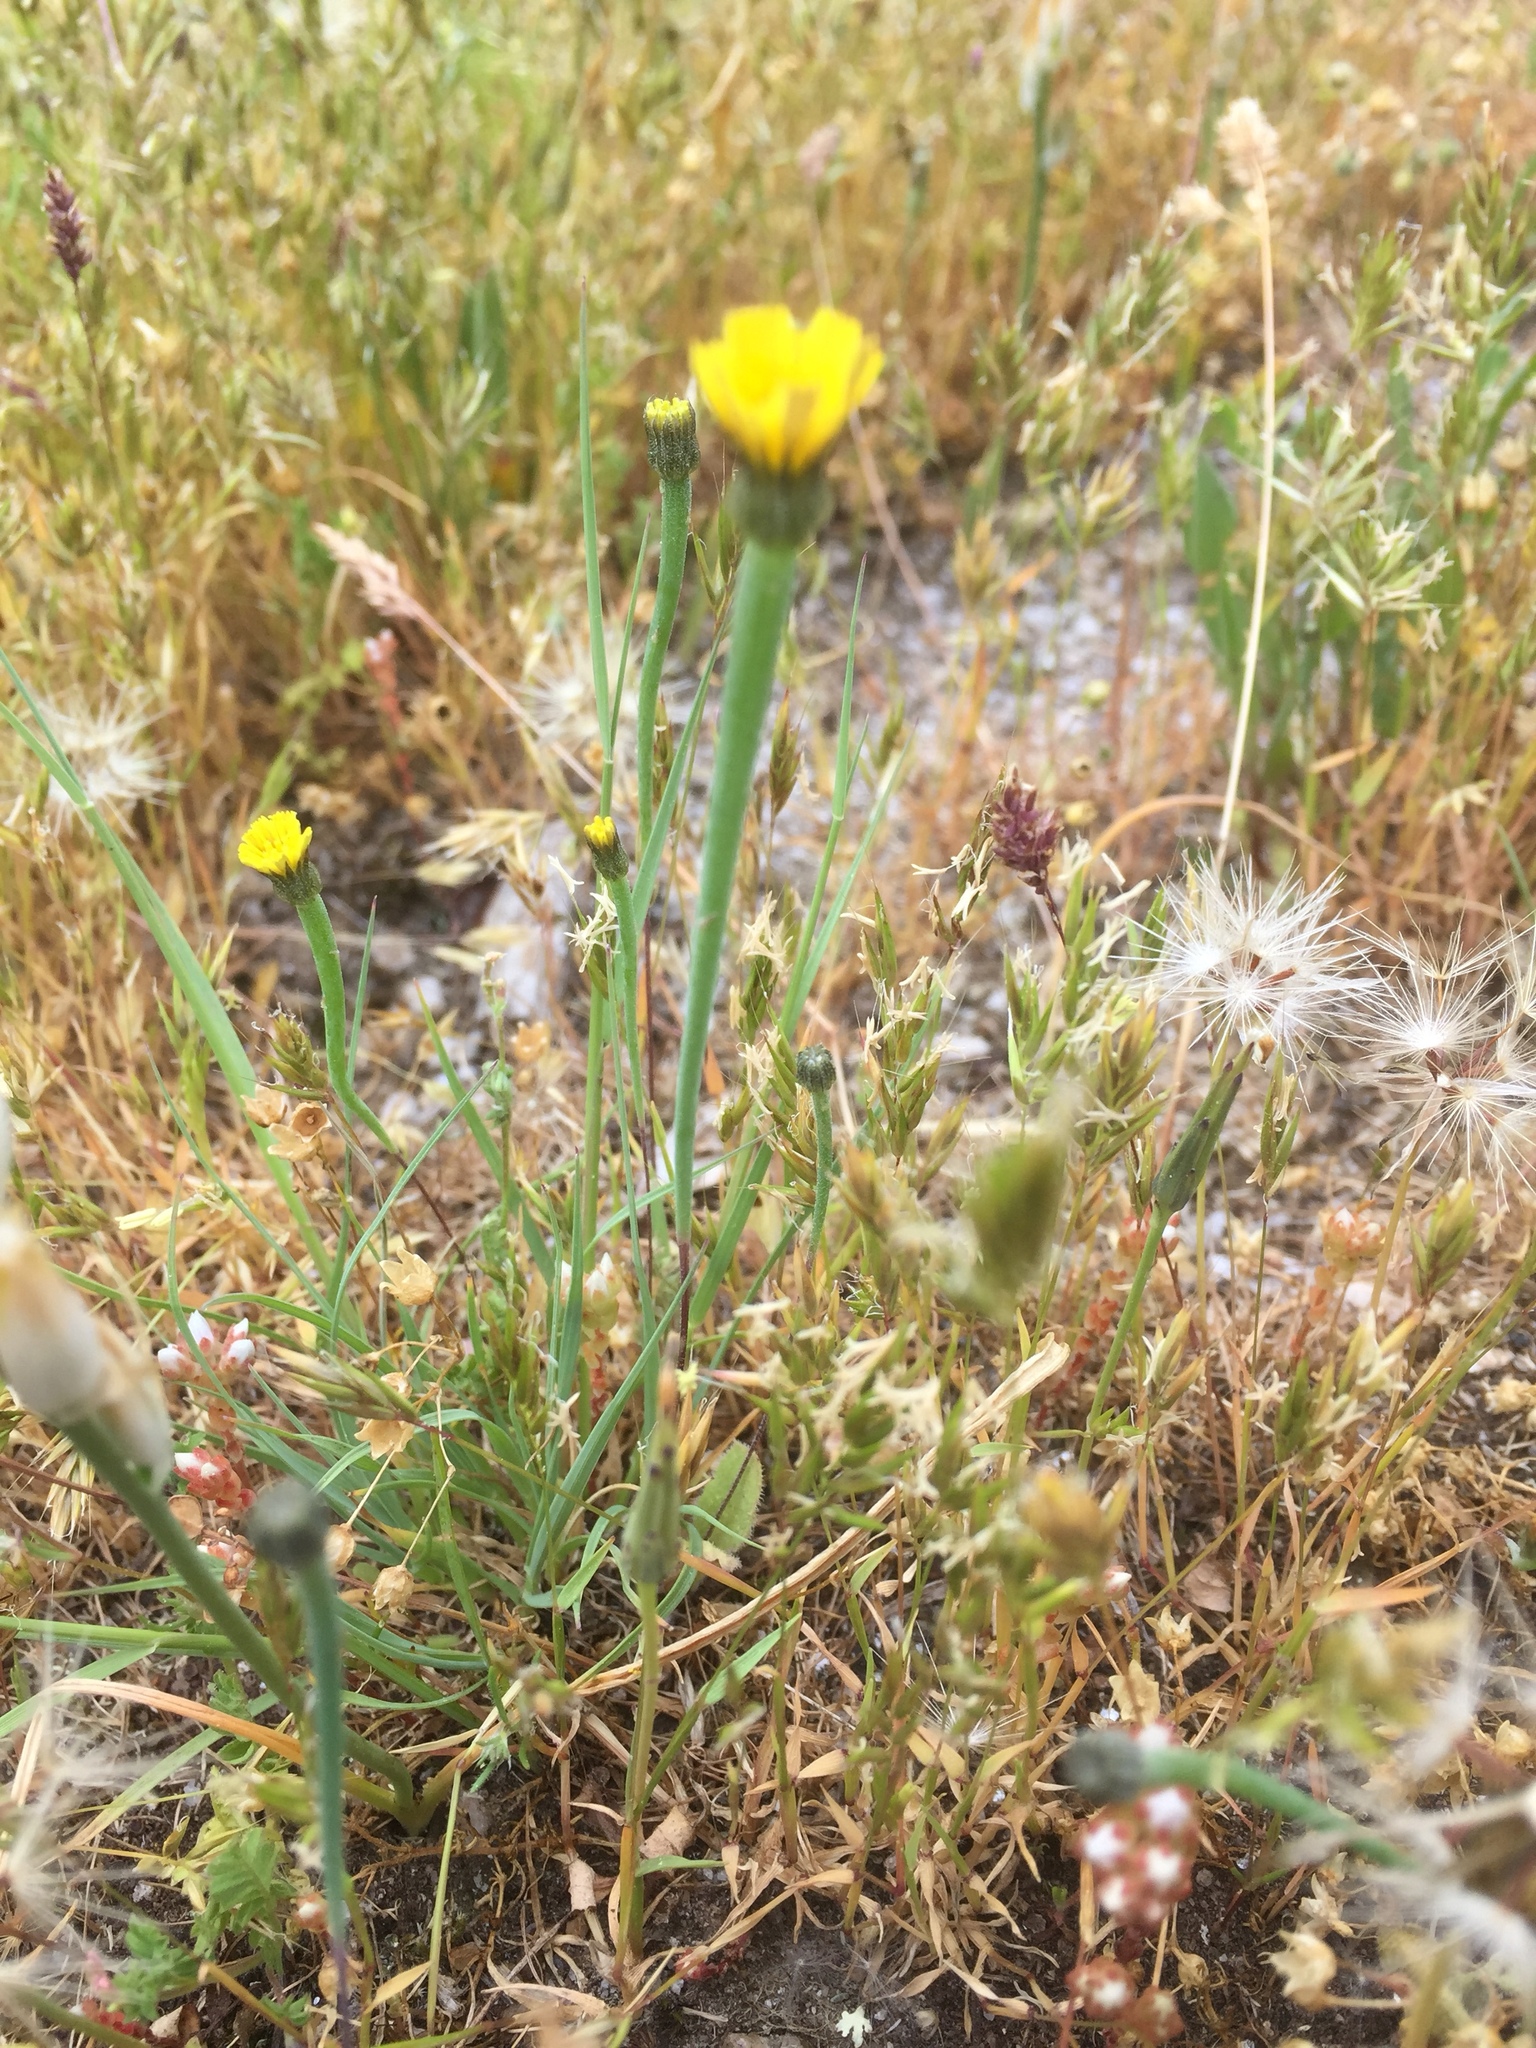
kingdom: Plantae
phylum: Tracheophyta
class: Magnoliopsida
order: Asterales
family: Asteraceae
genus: Arnoseris
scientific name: Arnoseris minima
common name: Lamb's succory
